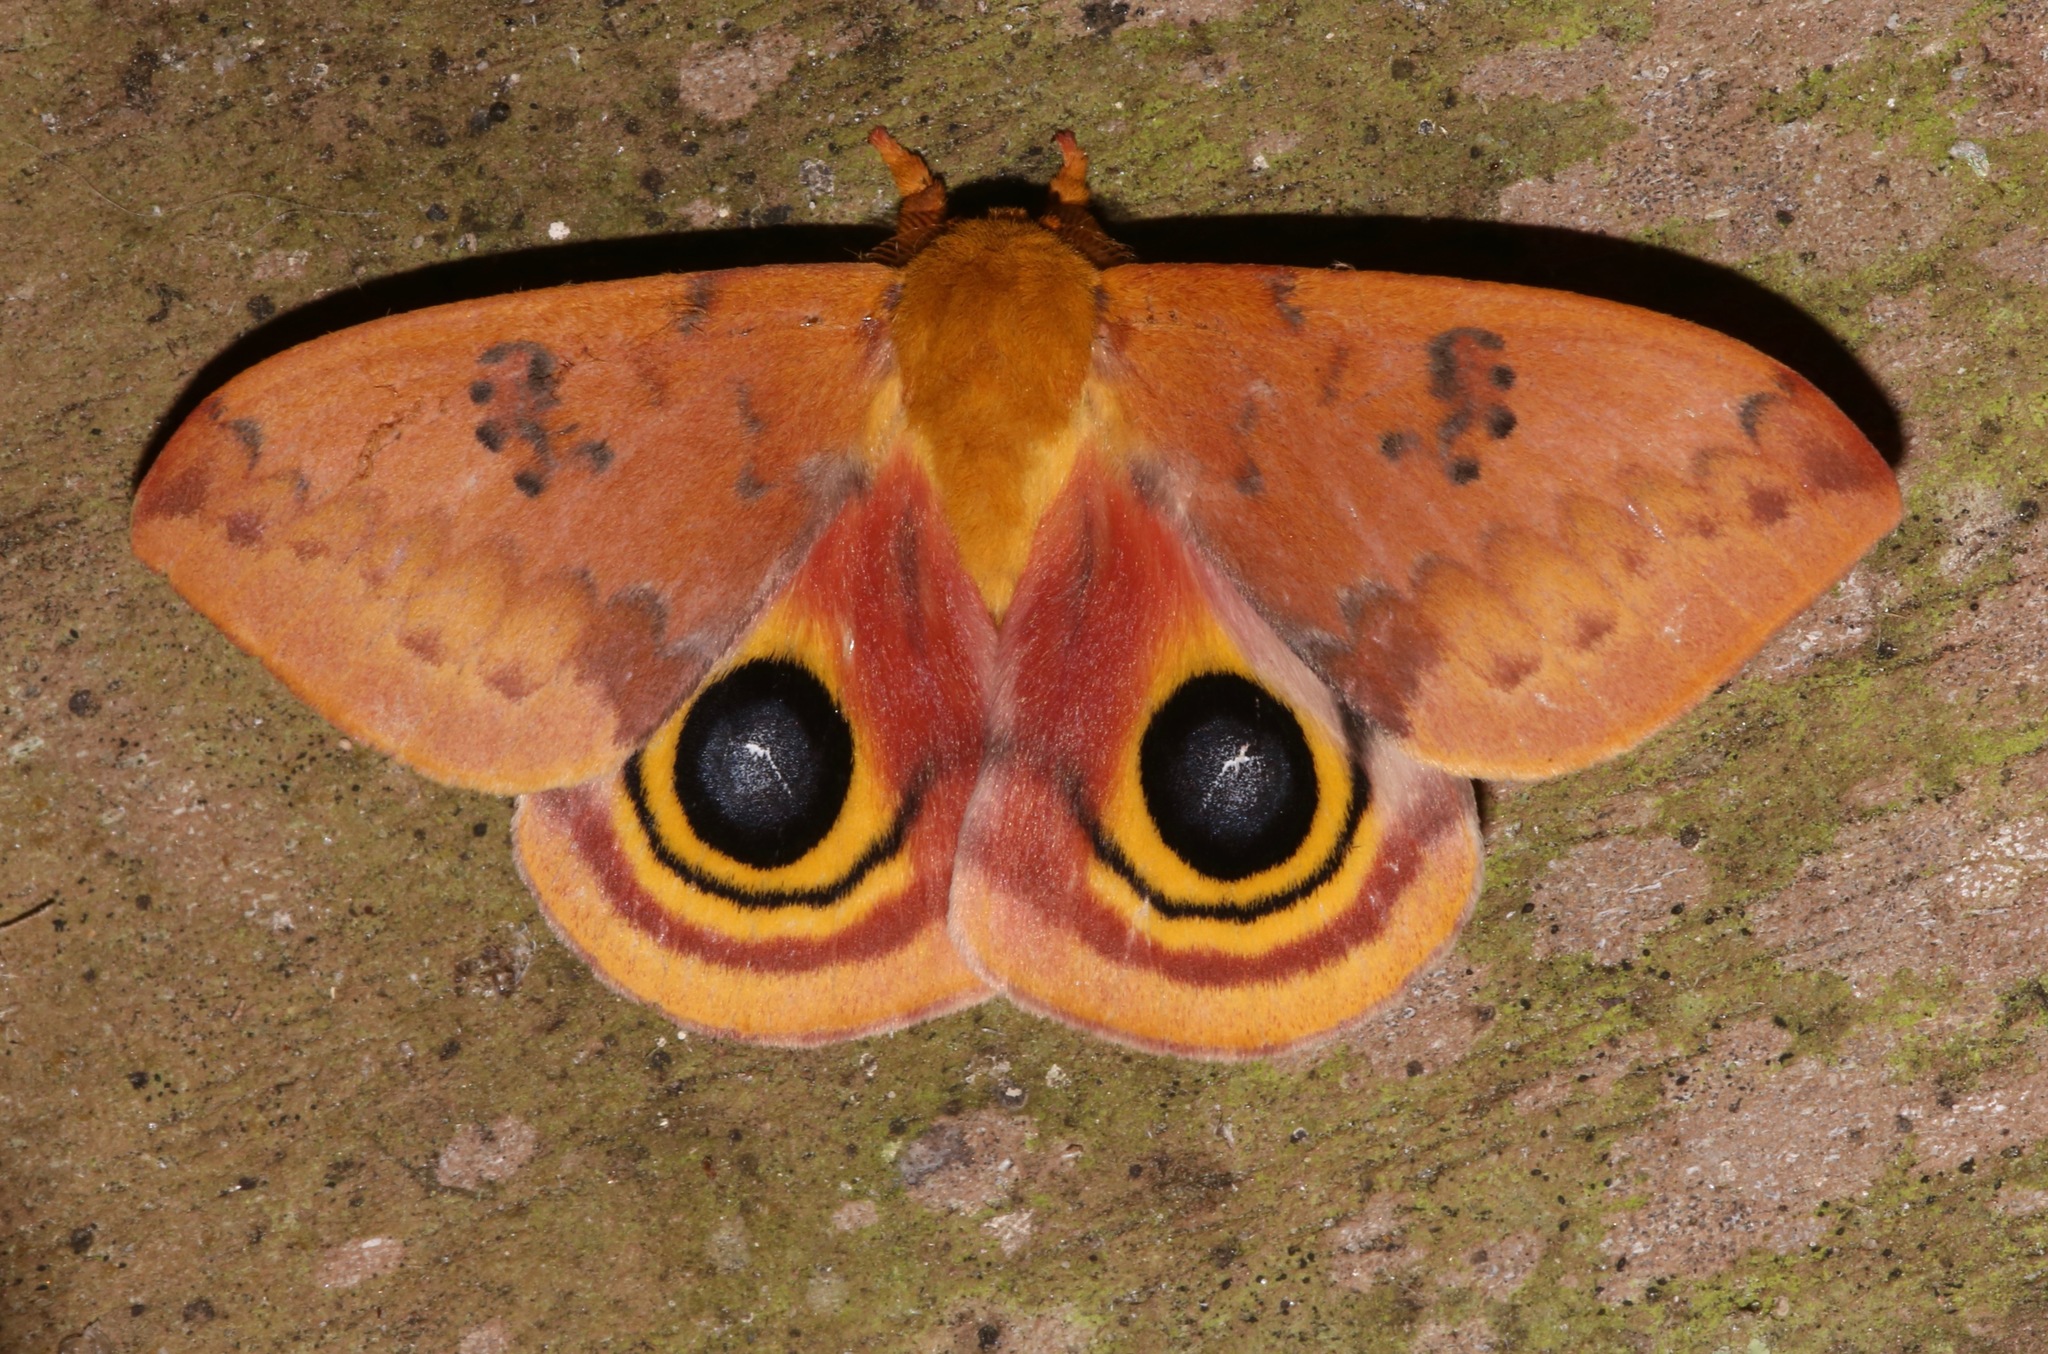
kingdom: Animalia
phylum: Arthropoda
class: Insecta
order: Lepidoptera
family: Saturniidae
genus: Automeris
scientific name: Automeris io
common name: Io moth
